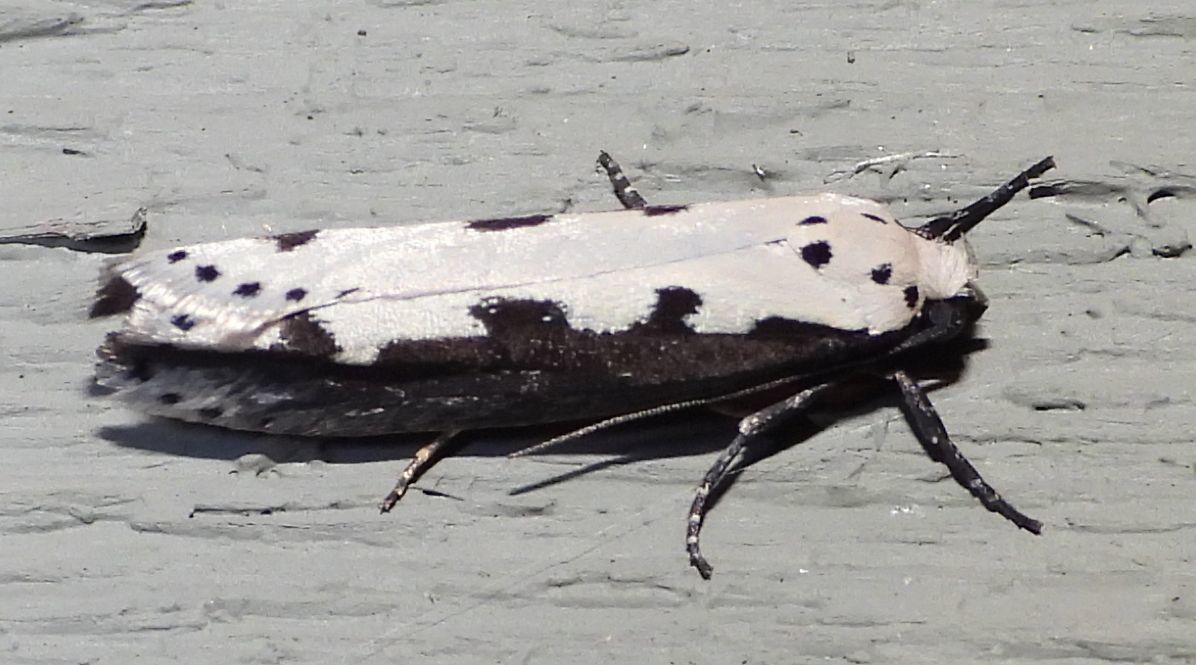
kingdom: Animalia
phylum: Arthropoda
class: Insecta
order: Lepidoptera
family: Ethmiidae
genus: Ethmia
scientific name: Ethmia bipunctella
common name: Bordered ermel
